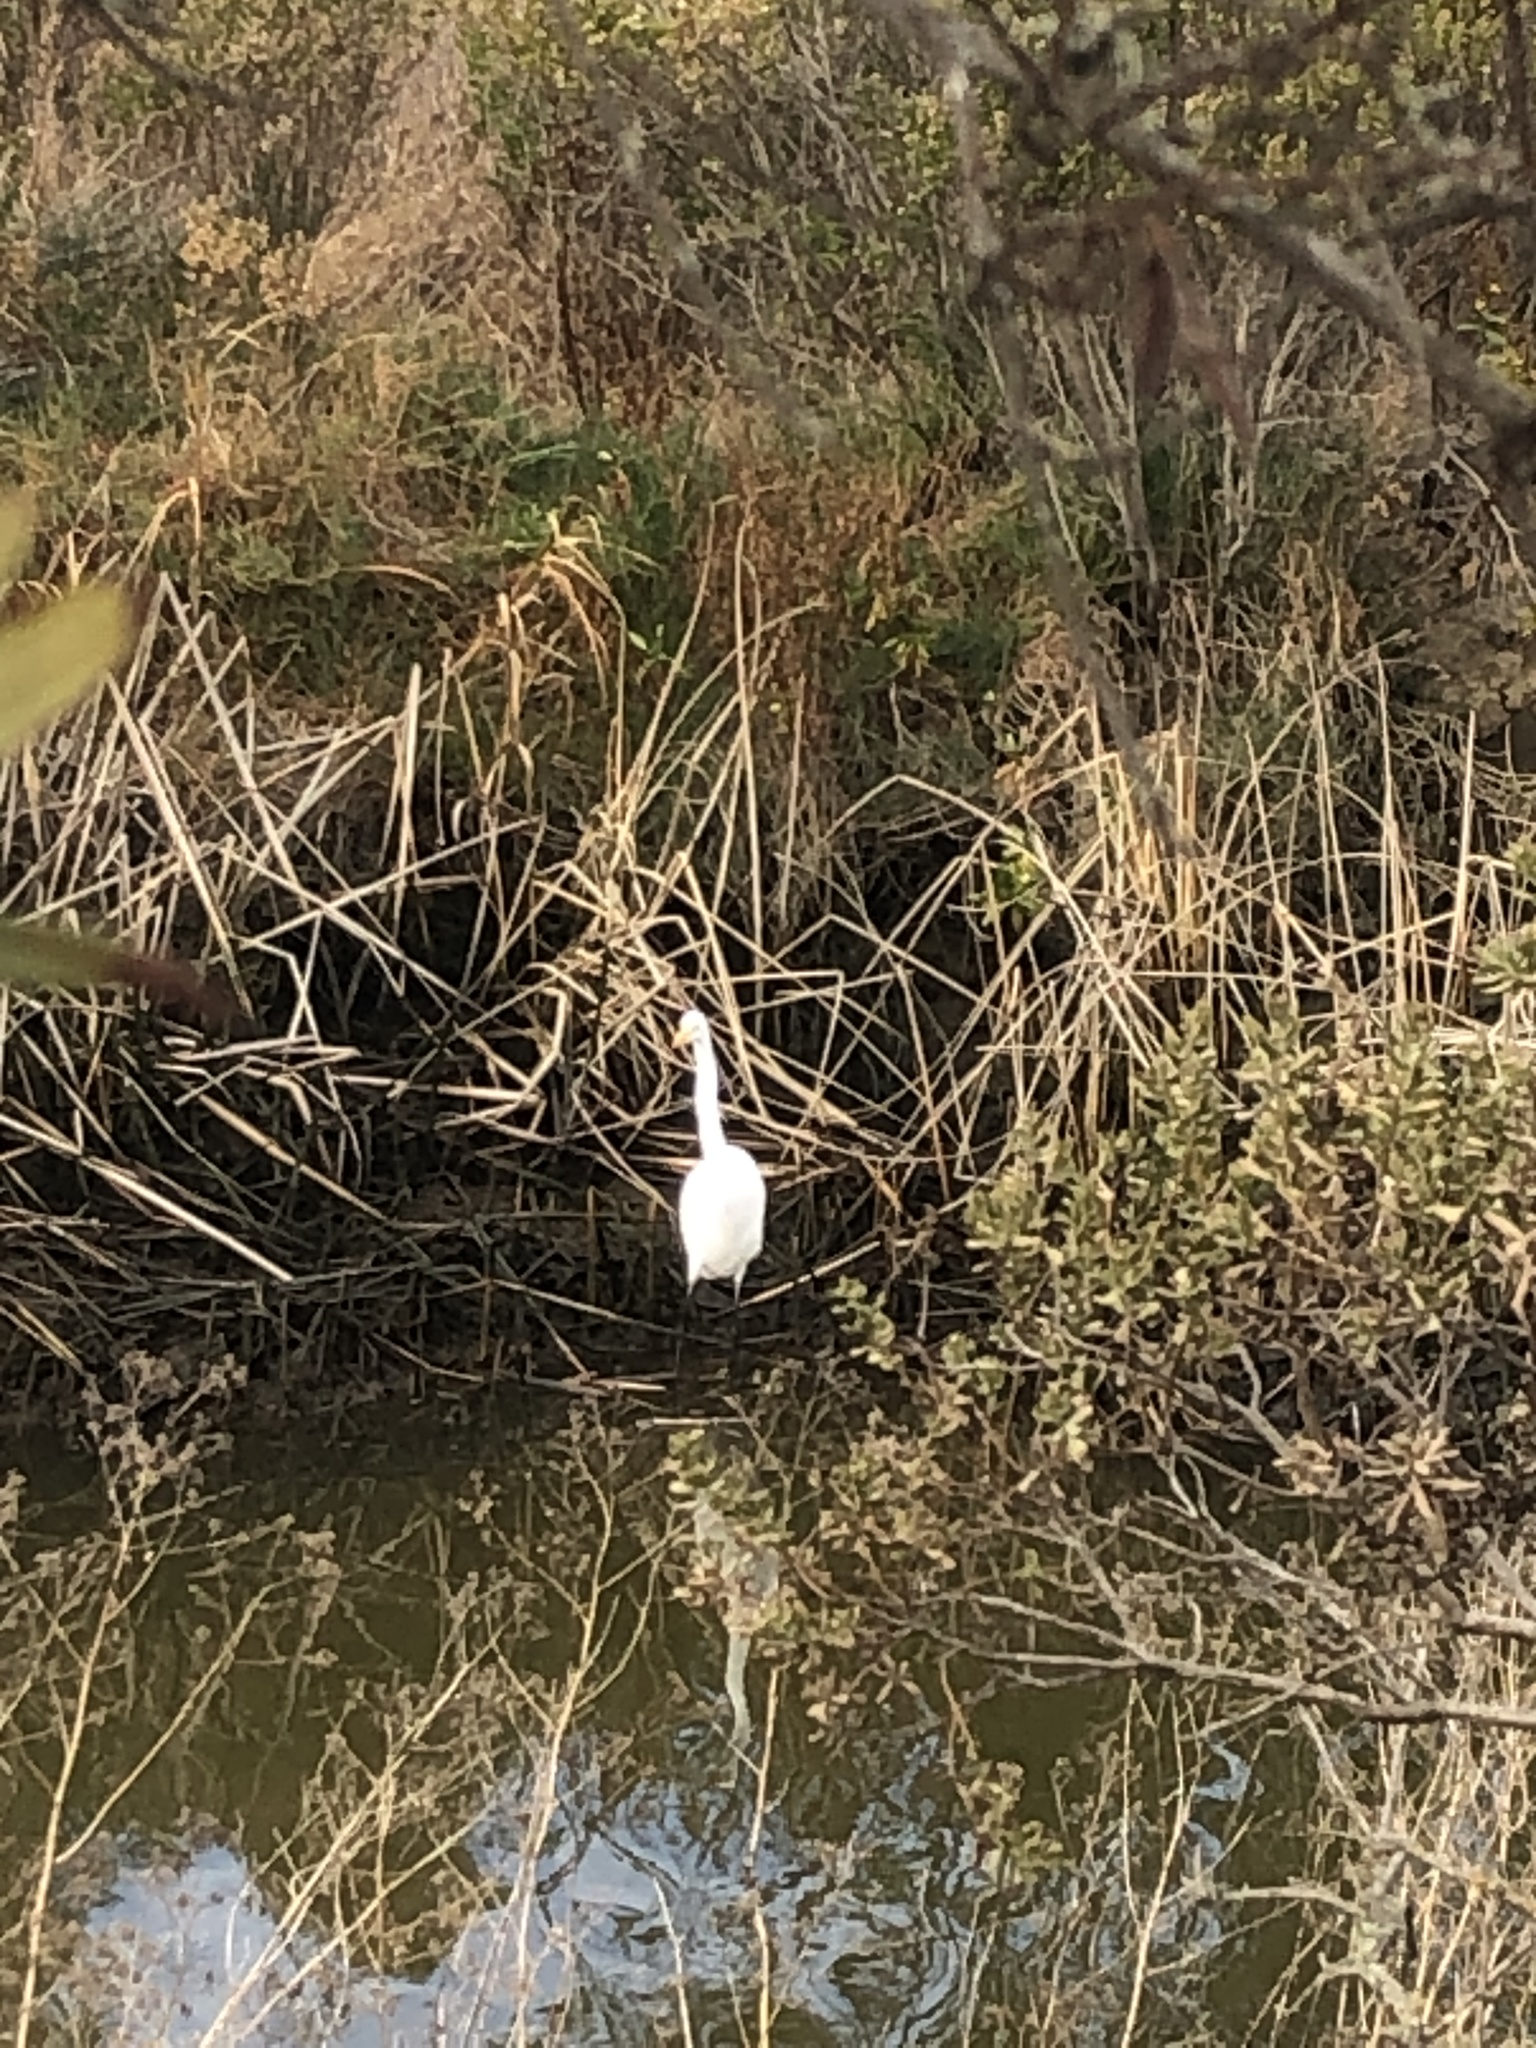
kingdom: Animalia
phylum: Chordata
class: Aves
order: Pelecaniformes
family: Ardeidae
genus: Ardea
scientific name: Ardea alba
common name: Great egret
